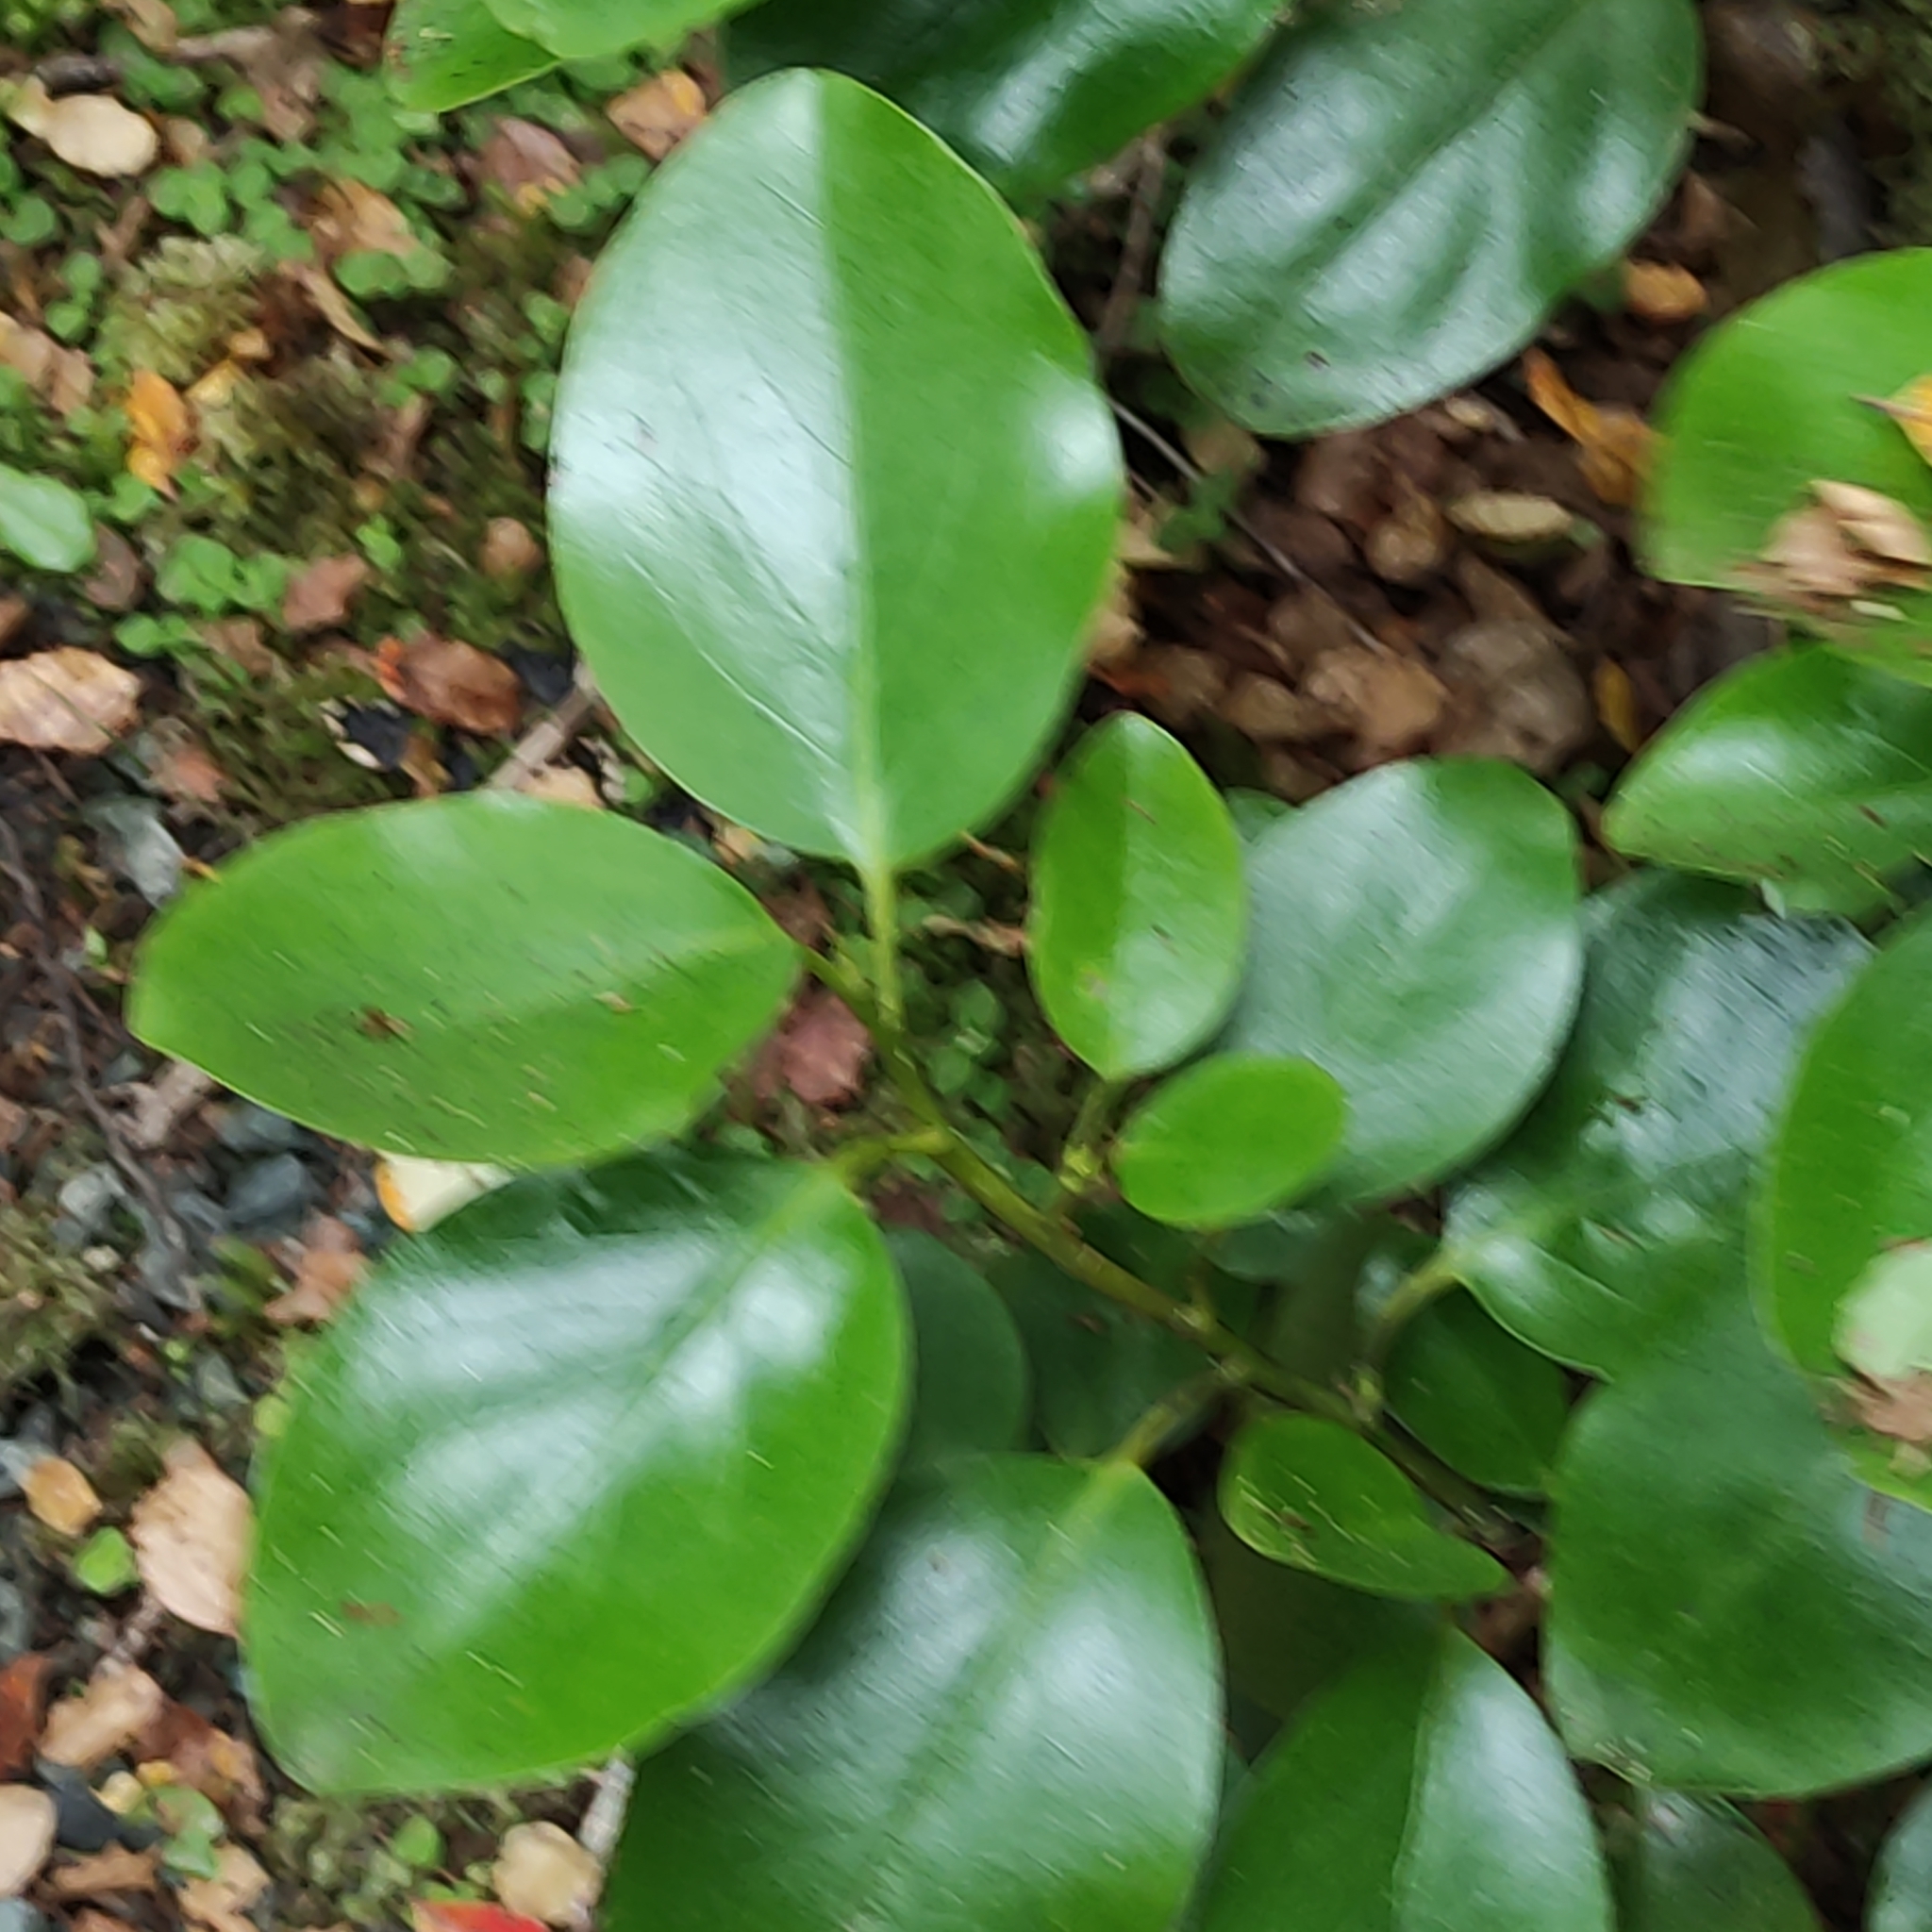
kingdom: Plantae
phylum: Tracheophyta
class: Magnoliopsida
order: Apiales
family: Griseliniaceae
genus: Griselinia
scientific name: Griselinia littoralis
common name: New zealand broadleaf
